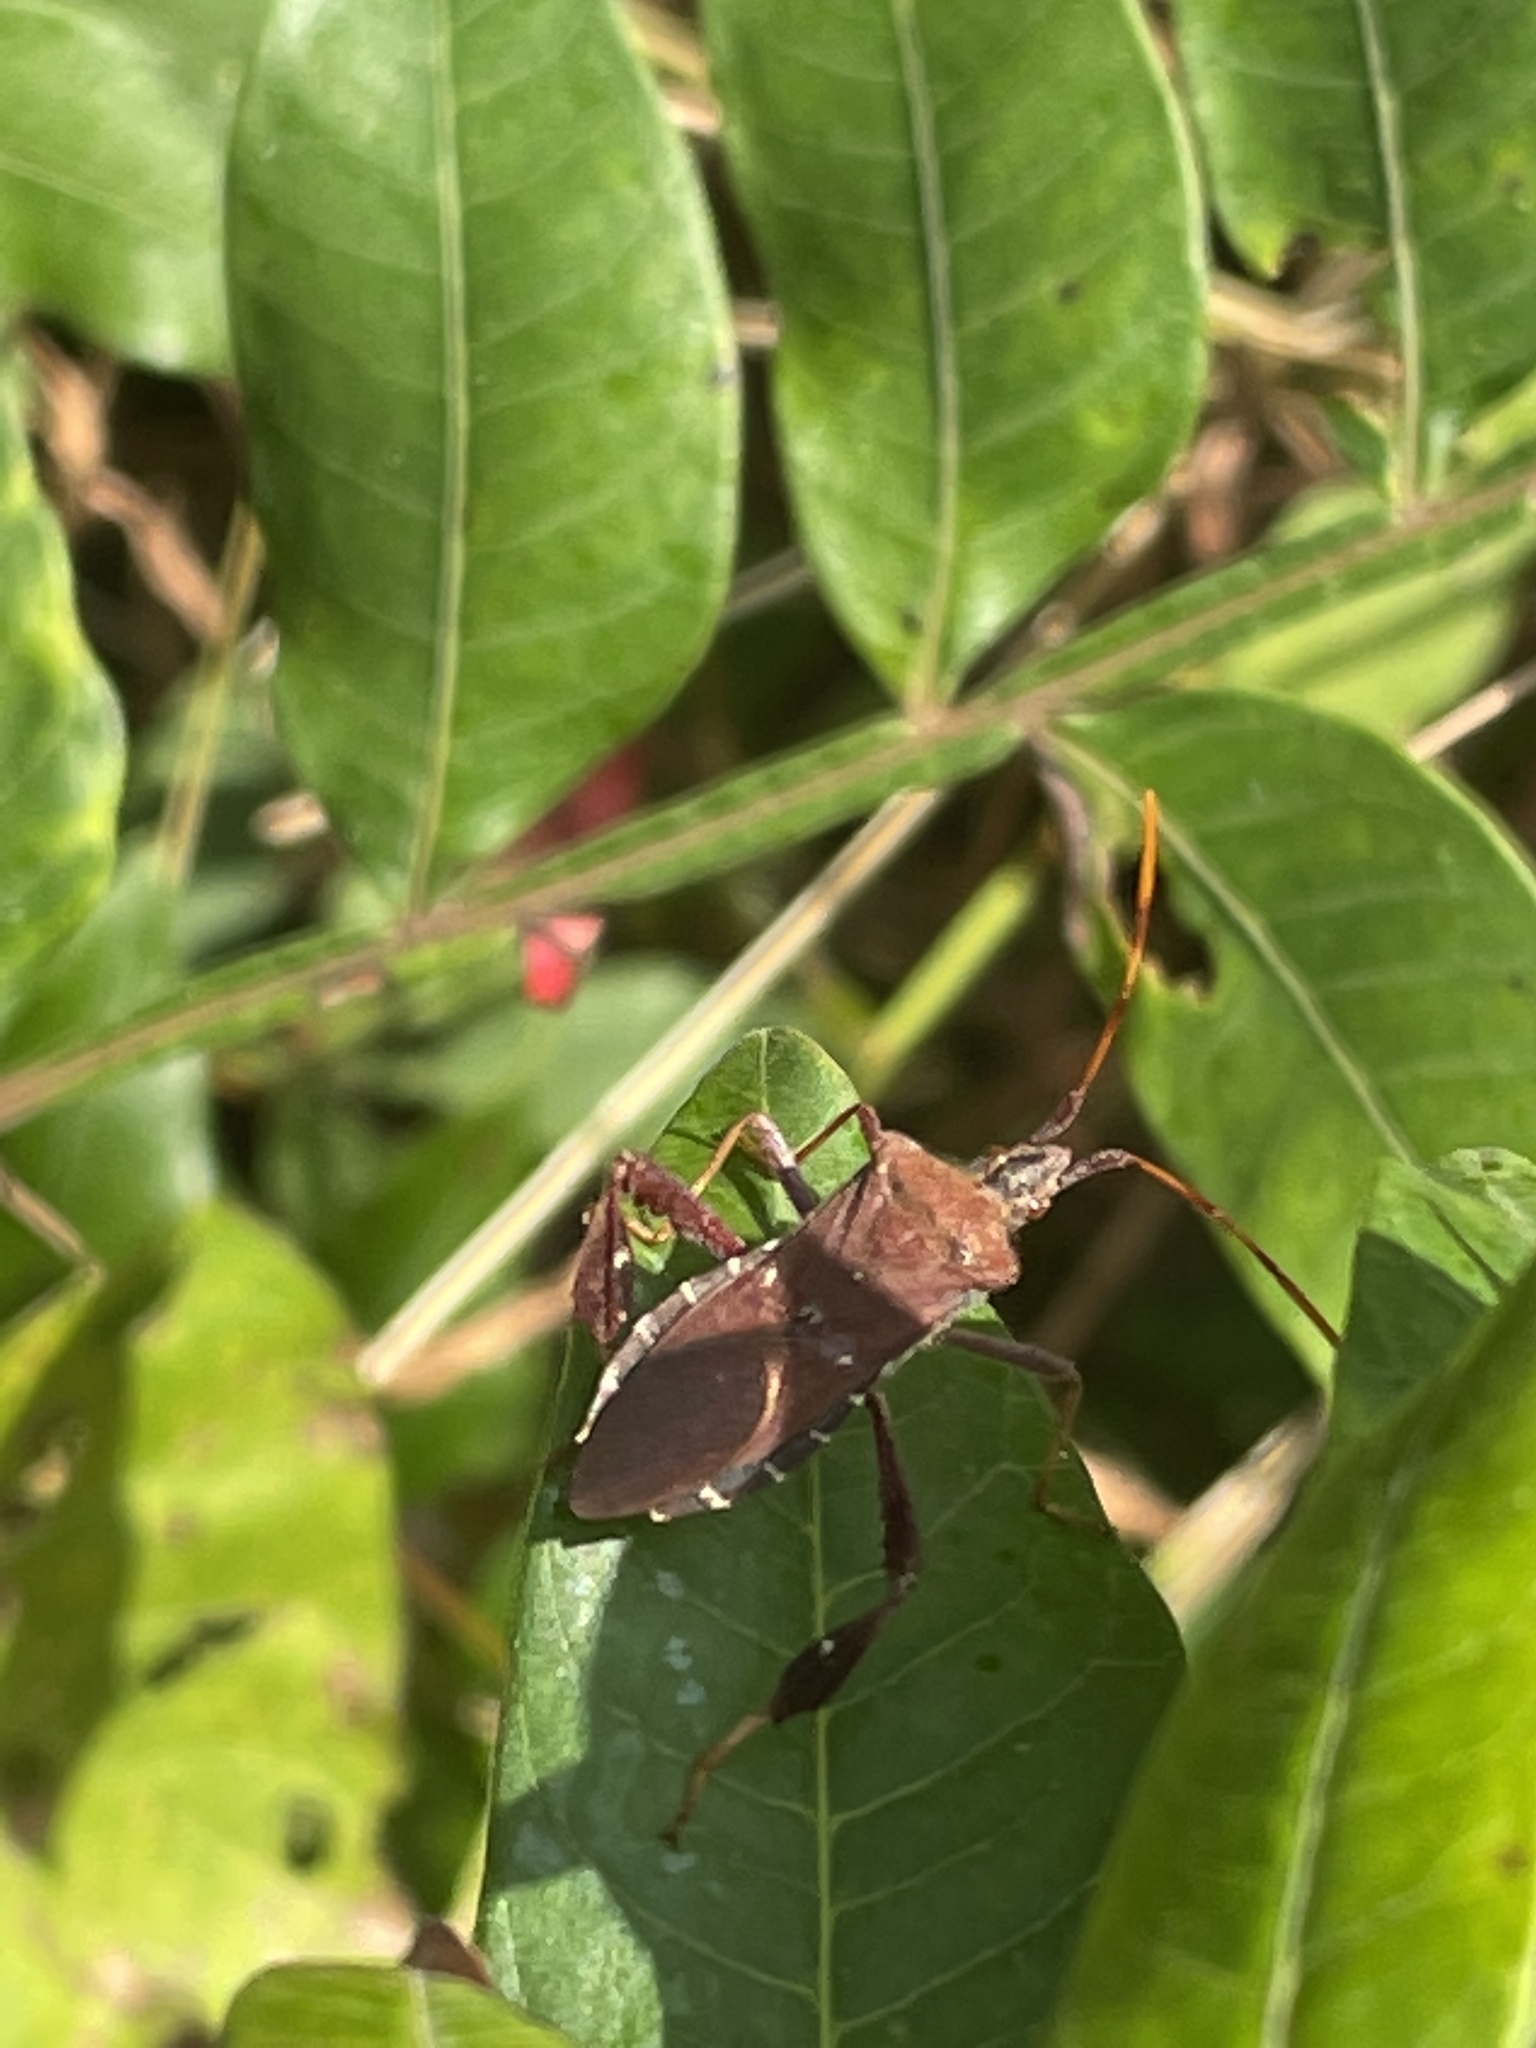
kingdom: Animalia
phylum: Arthropoda
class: Insecta
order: Hemiptera
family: Coreidae
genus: Leptoglossus
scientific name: Leptoglossus oppositus
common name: Northern leaf-footed bug
